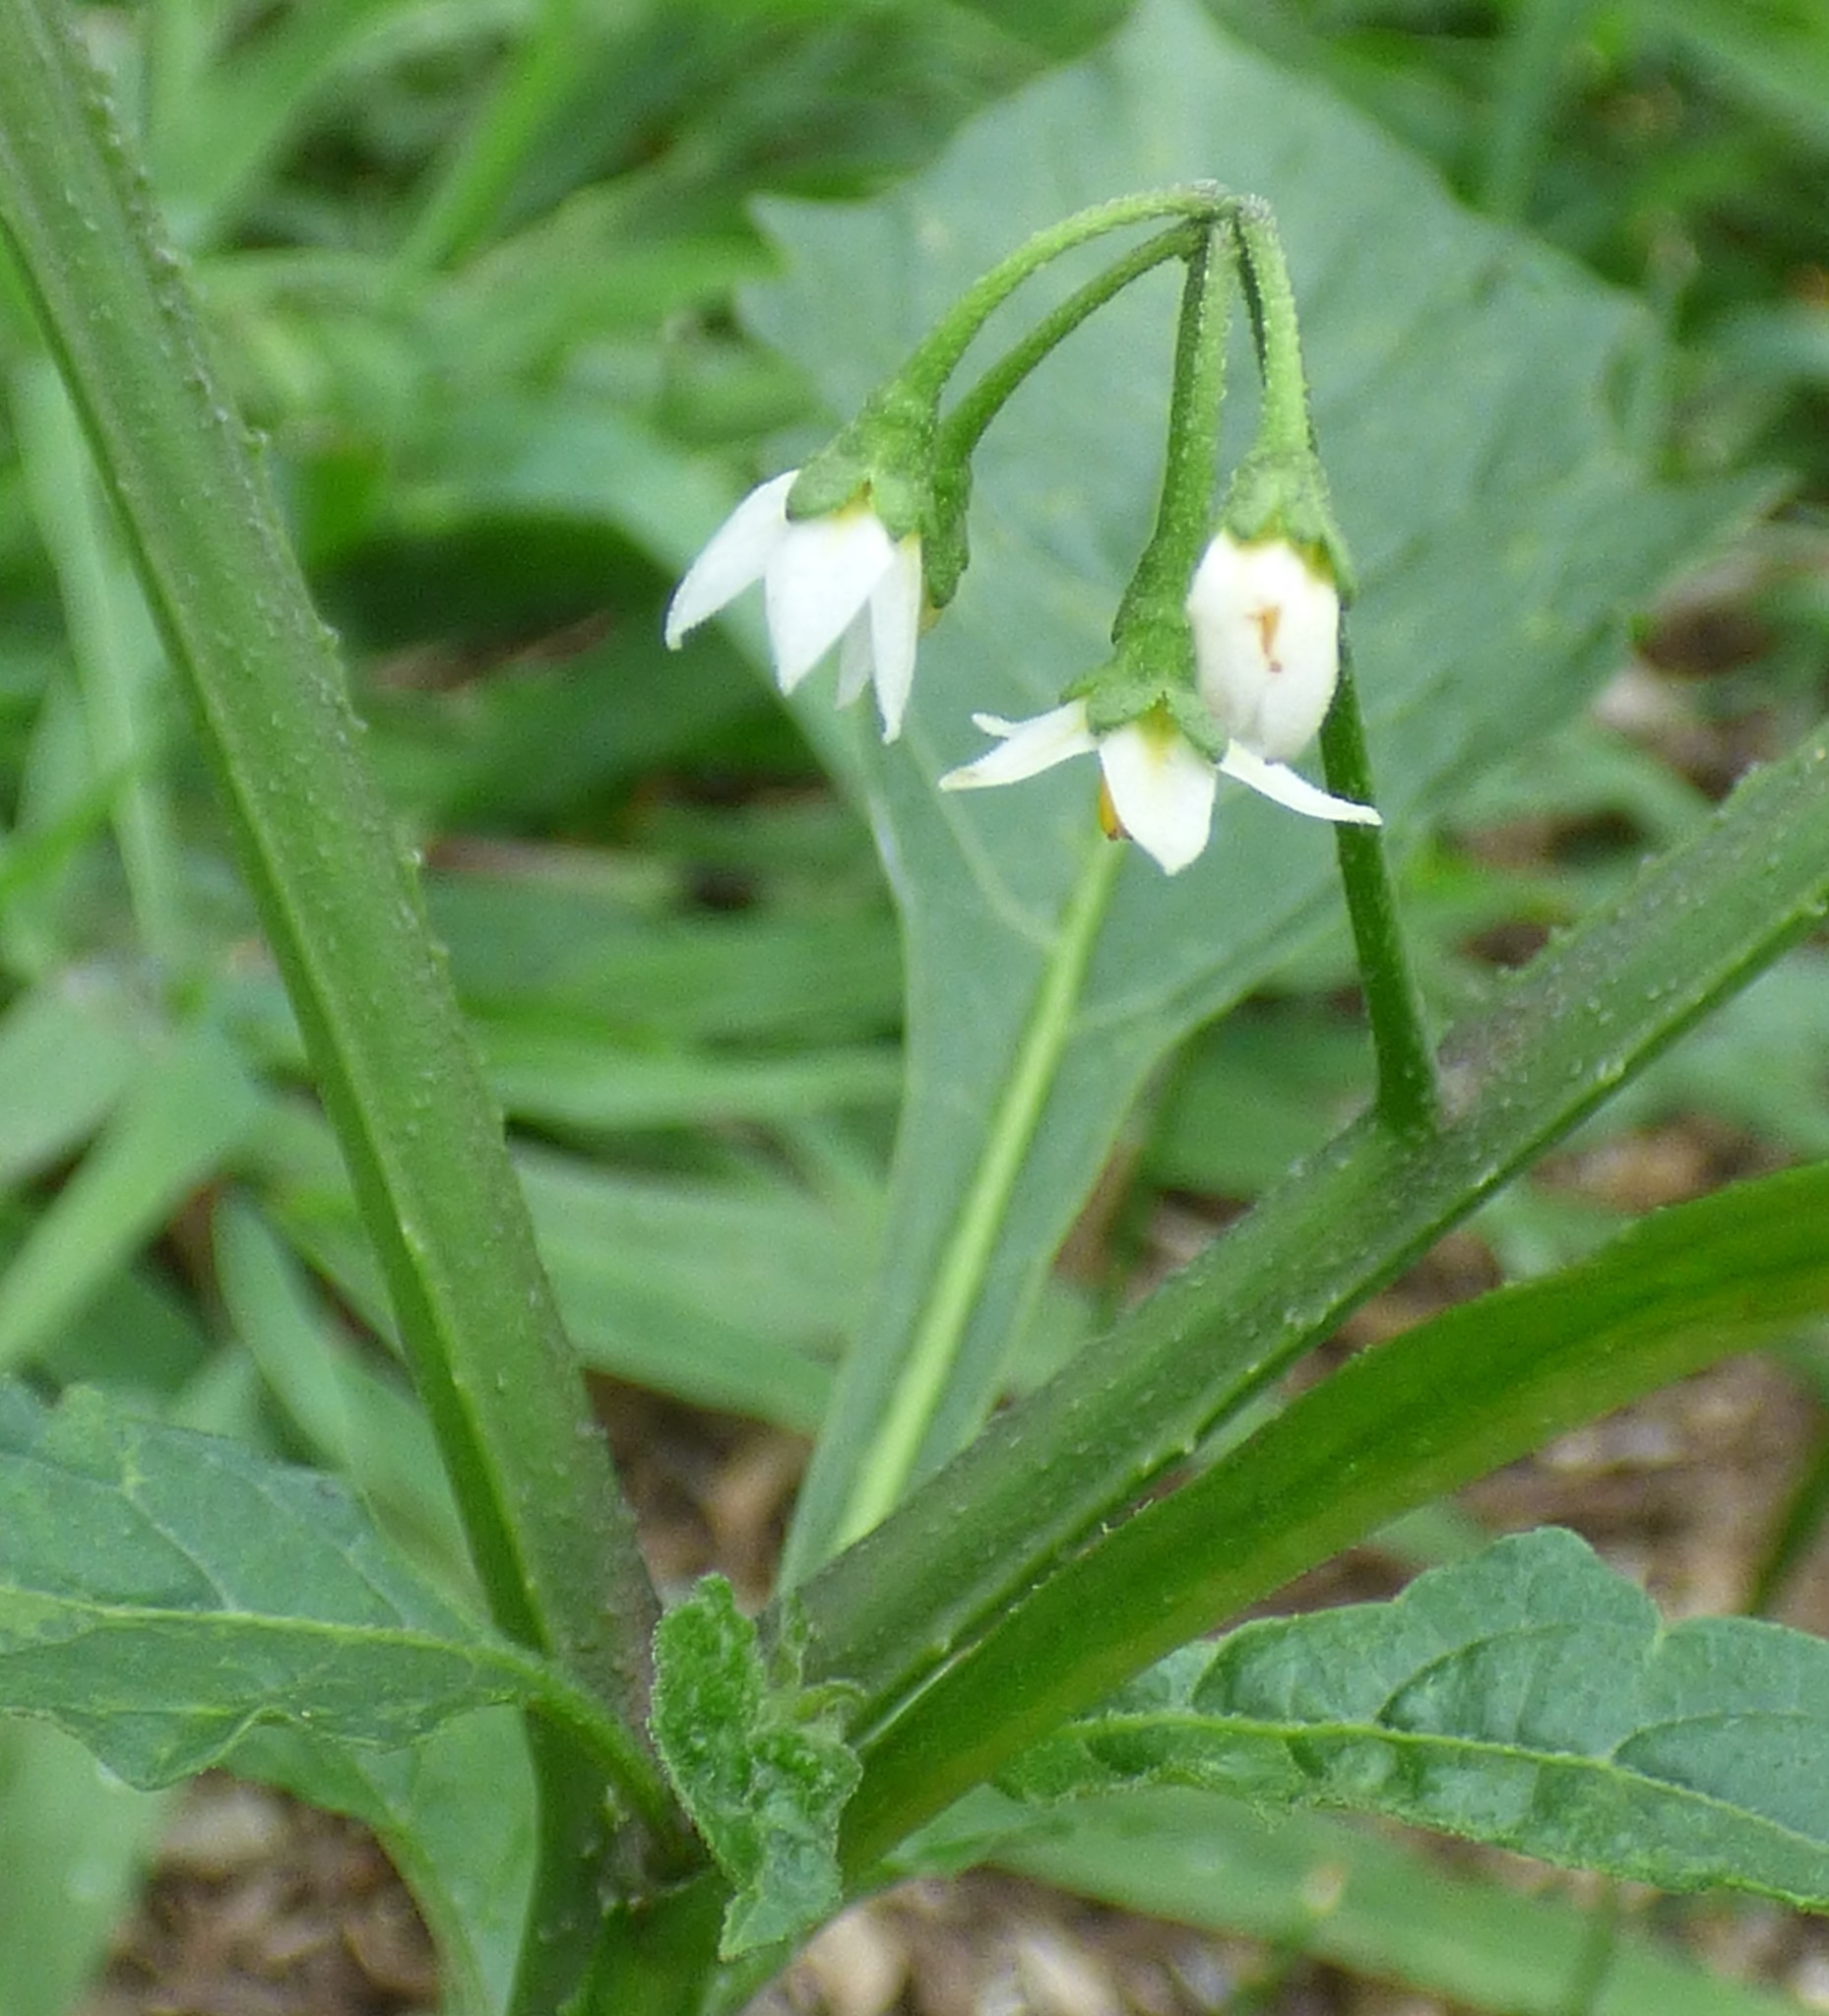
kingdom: Plantae
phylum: Tracheophyta
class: Magnoliopsida
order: Solanales
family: Solanaceae
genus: Solanum
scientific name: Solanum emulans
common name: Eastern black nightshade
